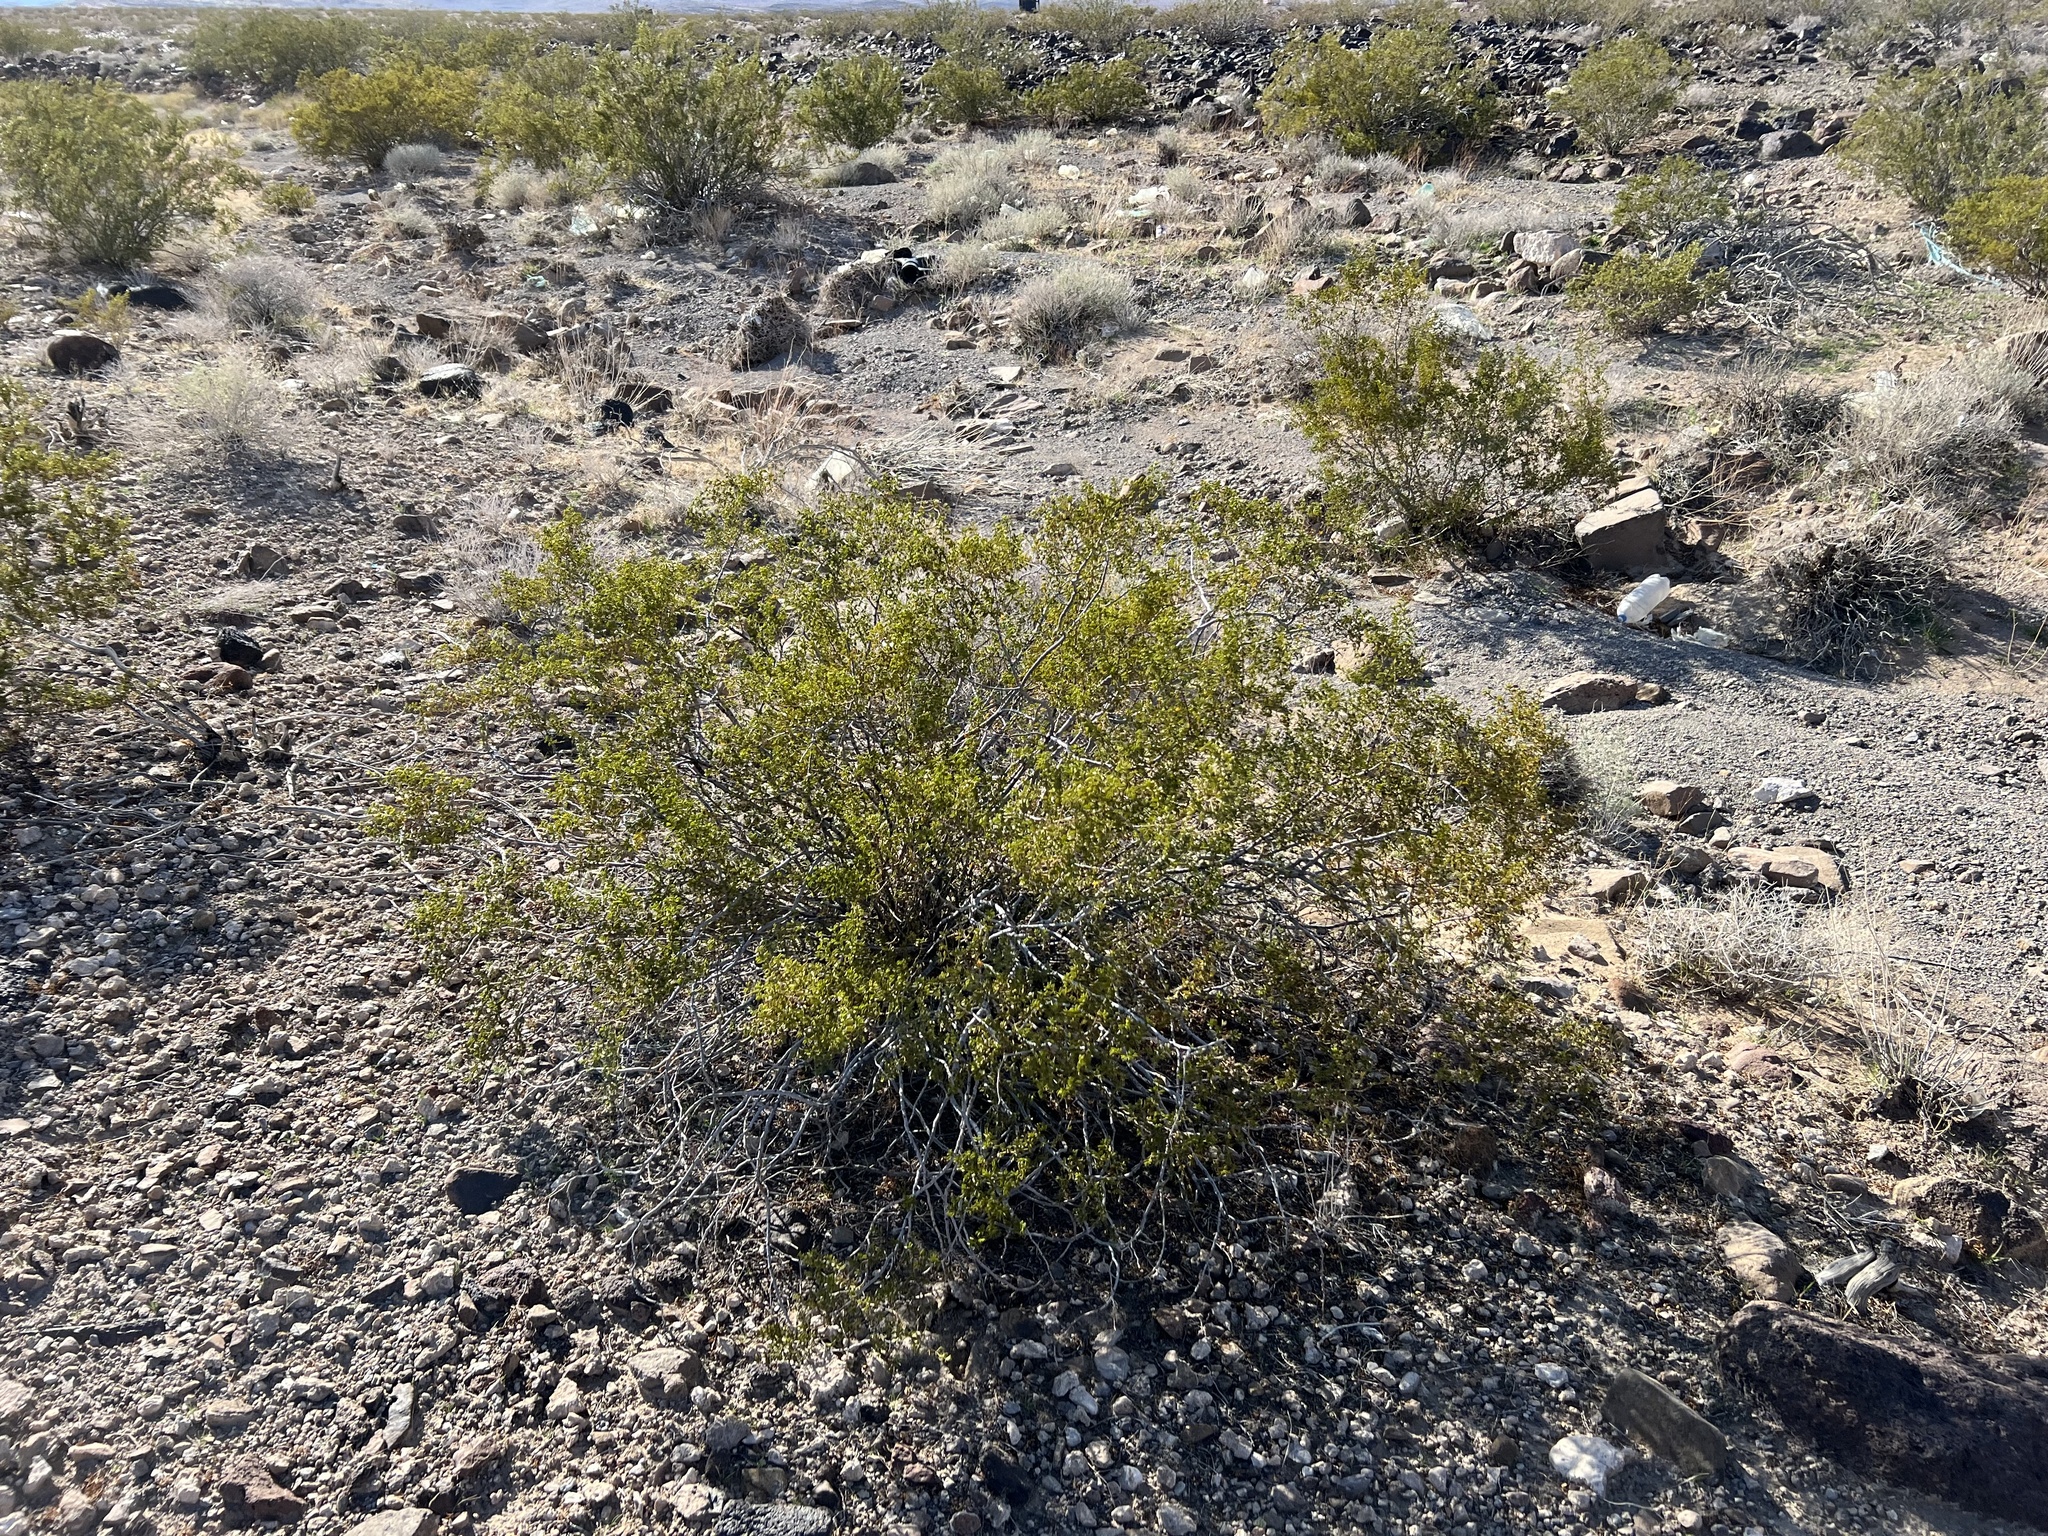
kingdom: Plantae
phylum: Tracheophyta
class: Magnoliopsida
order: Zygophyllales
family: Zygophyllaceae
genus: Larrea
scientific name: Larrea tridentata
